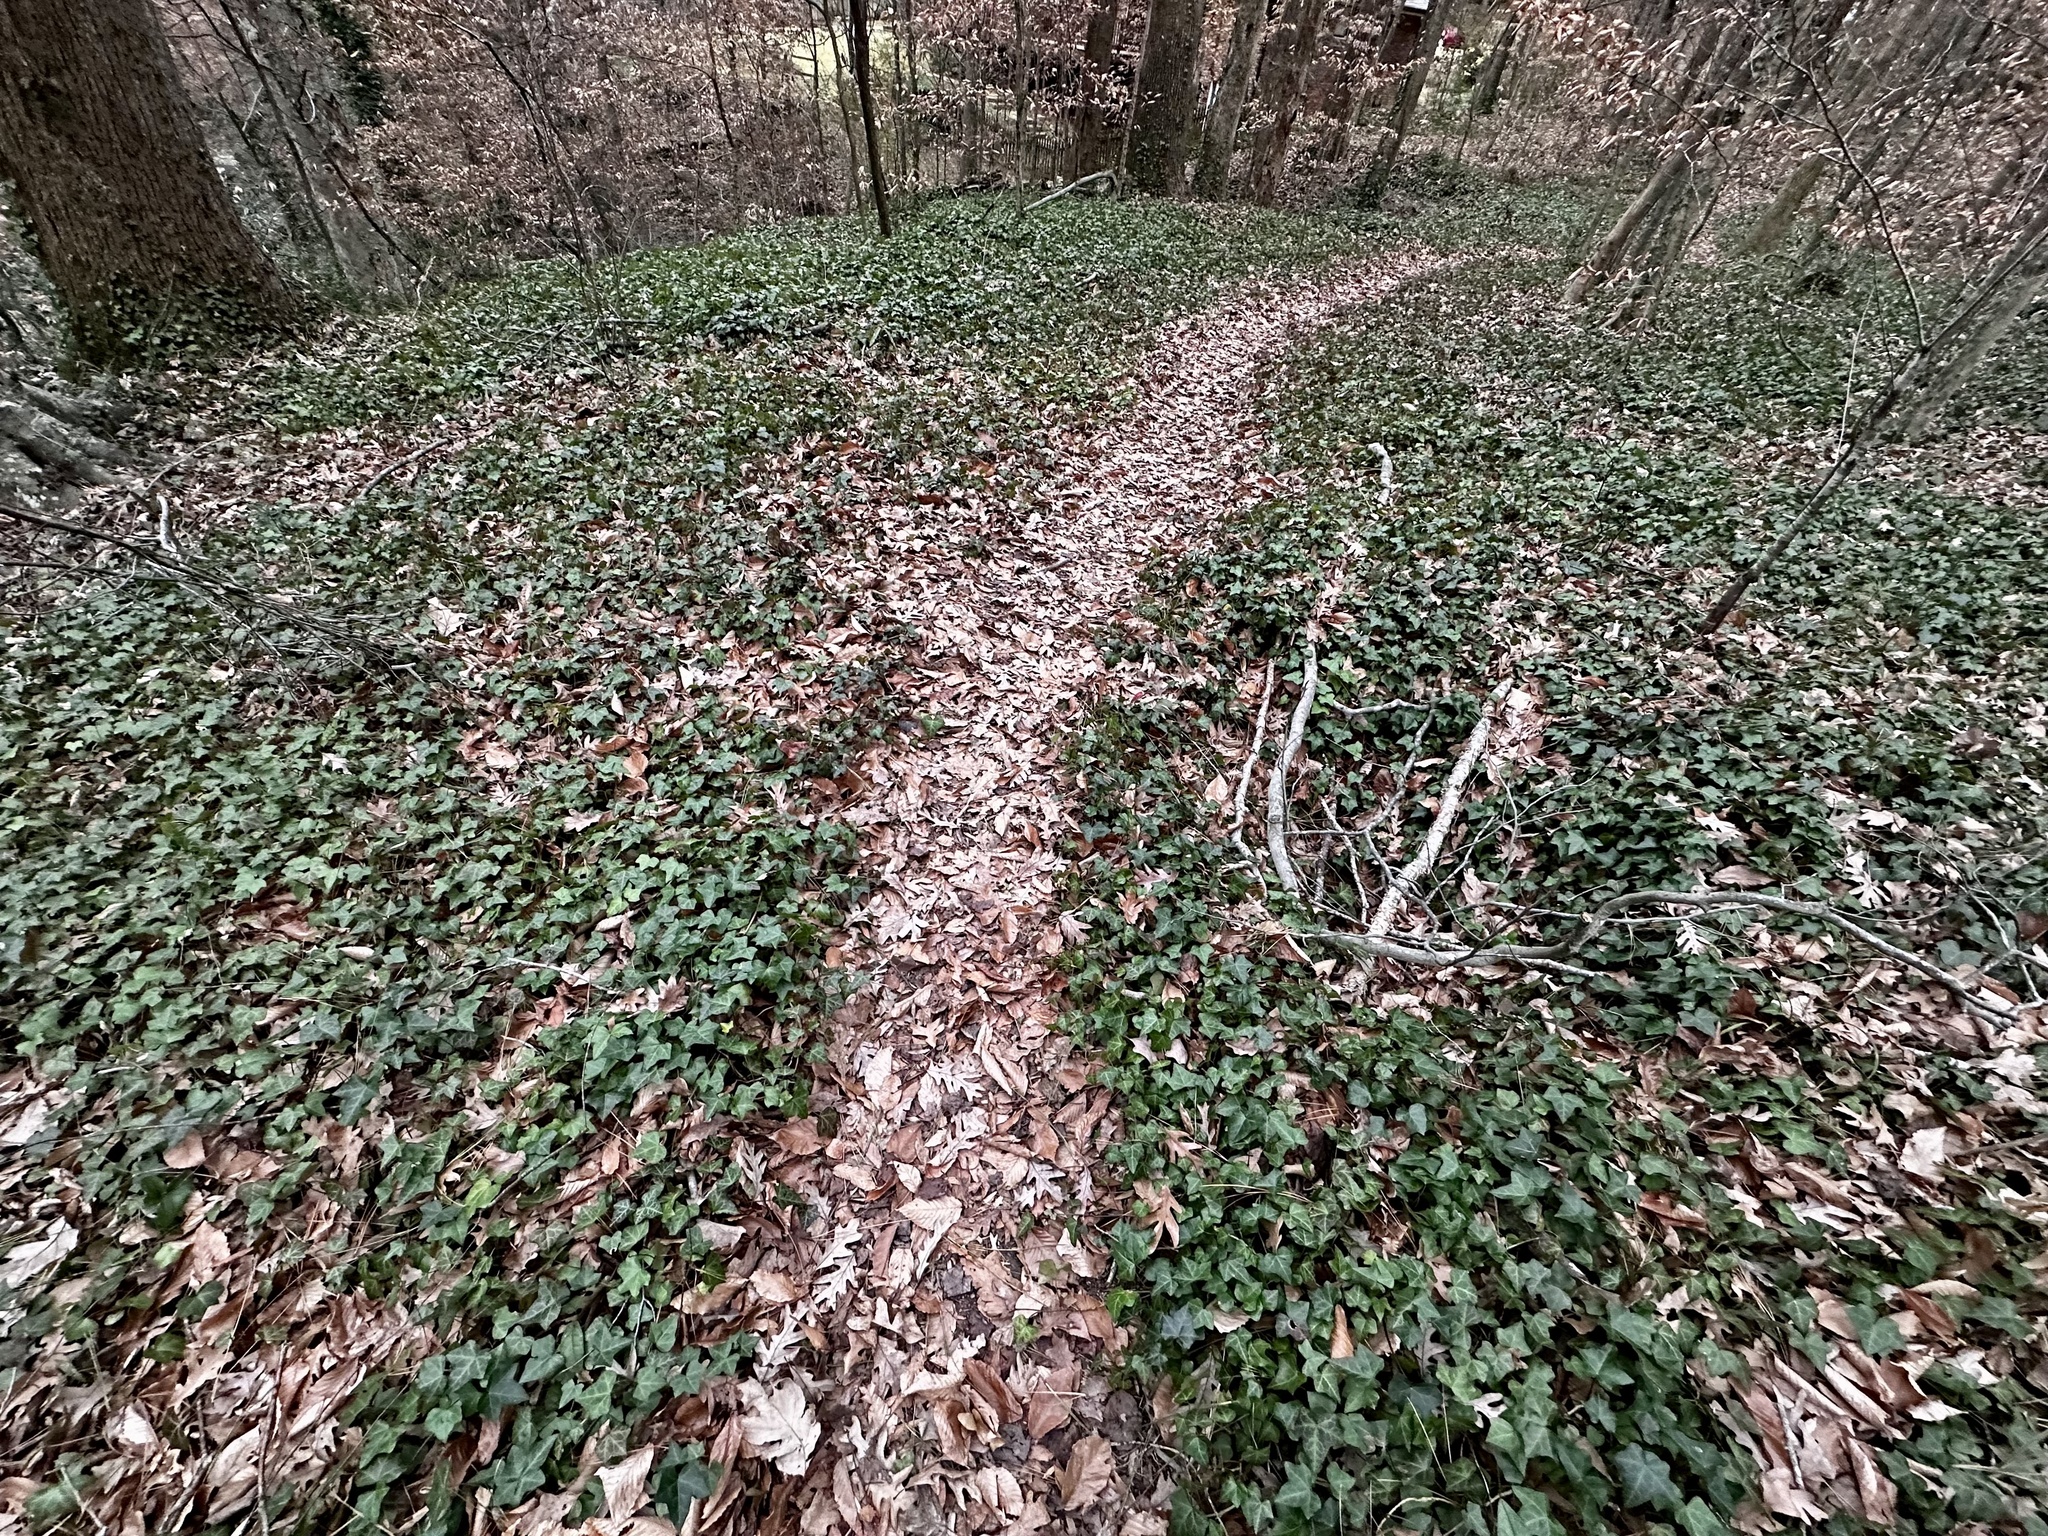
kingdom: Plantae
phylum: Tracheophyta
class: Magnoliopsida
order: Apiales
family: Araliaceae
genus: Hedera
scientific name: Hedera helix
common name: Ivy
